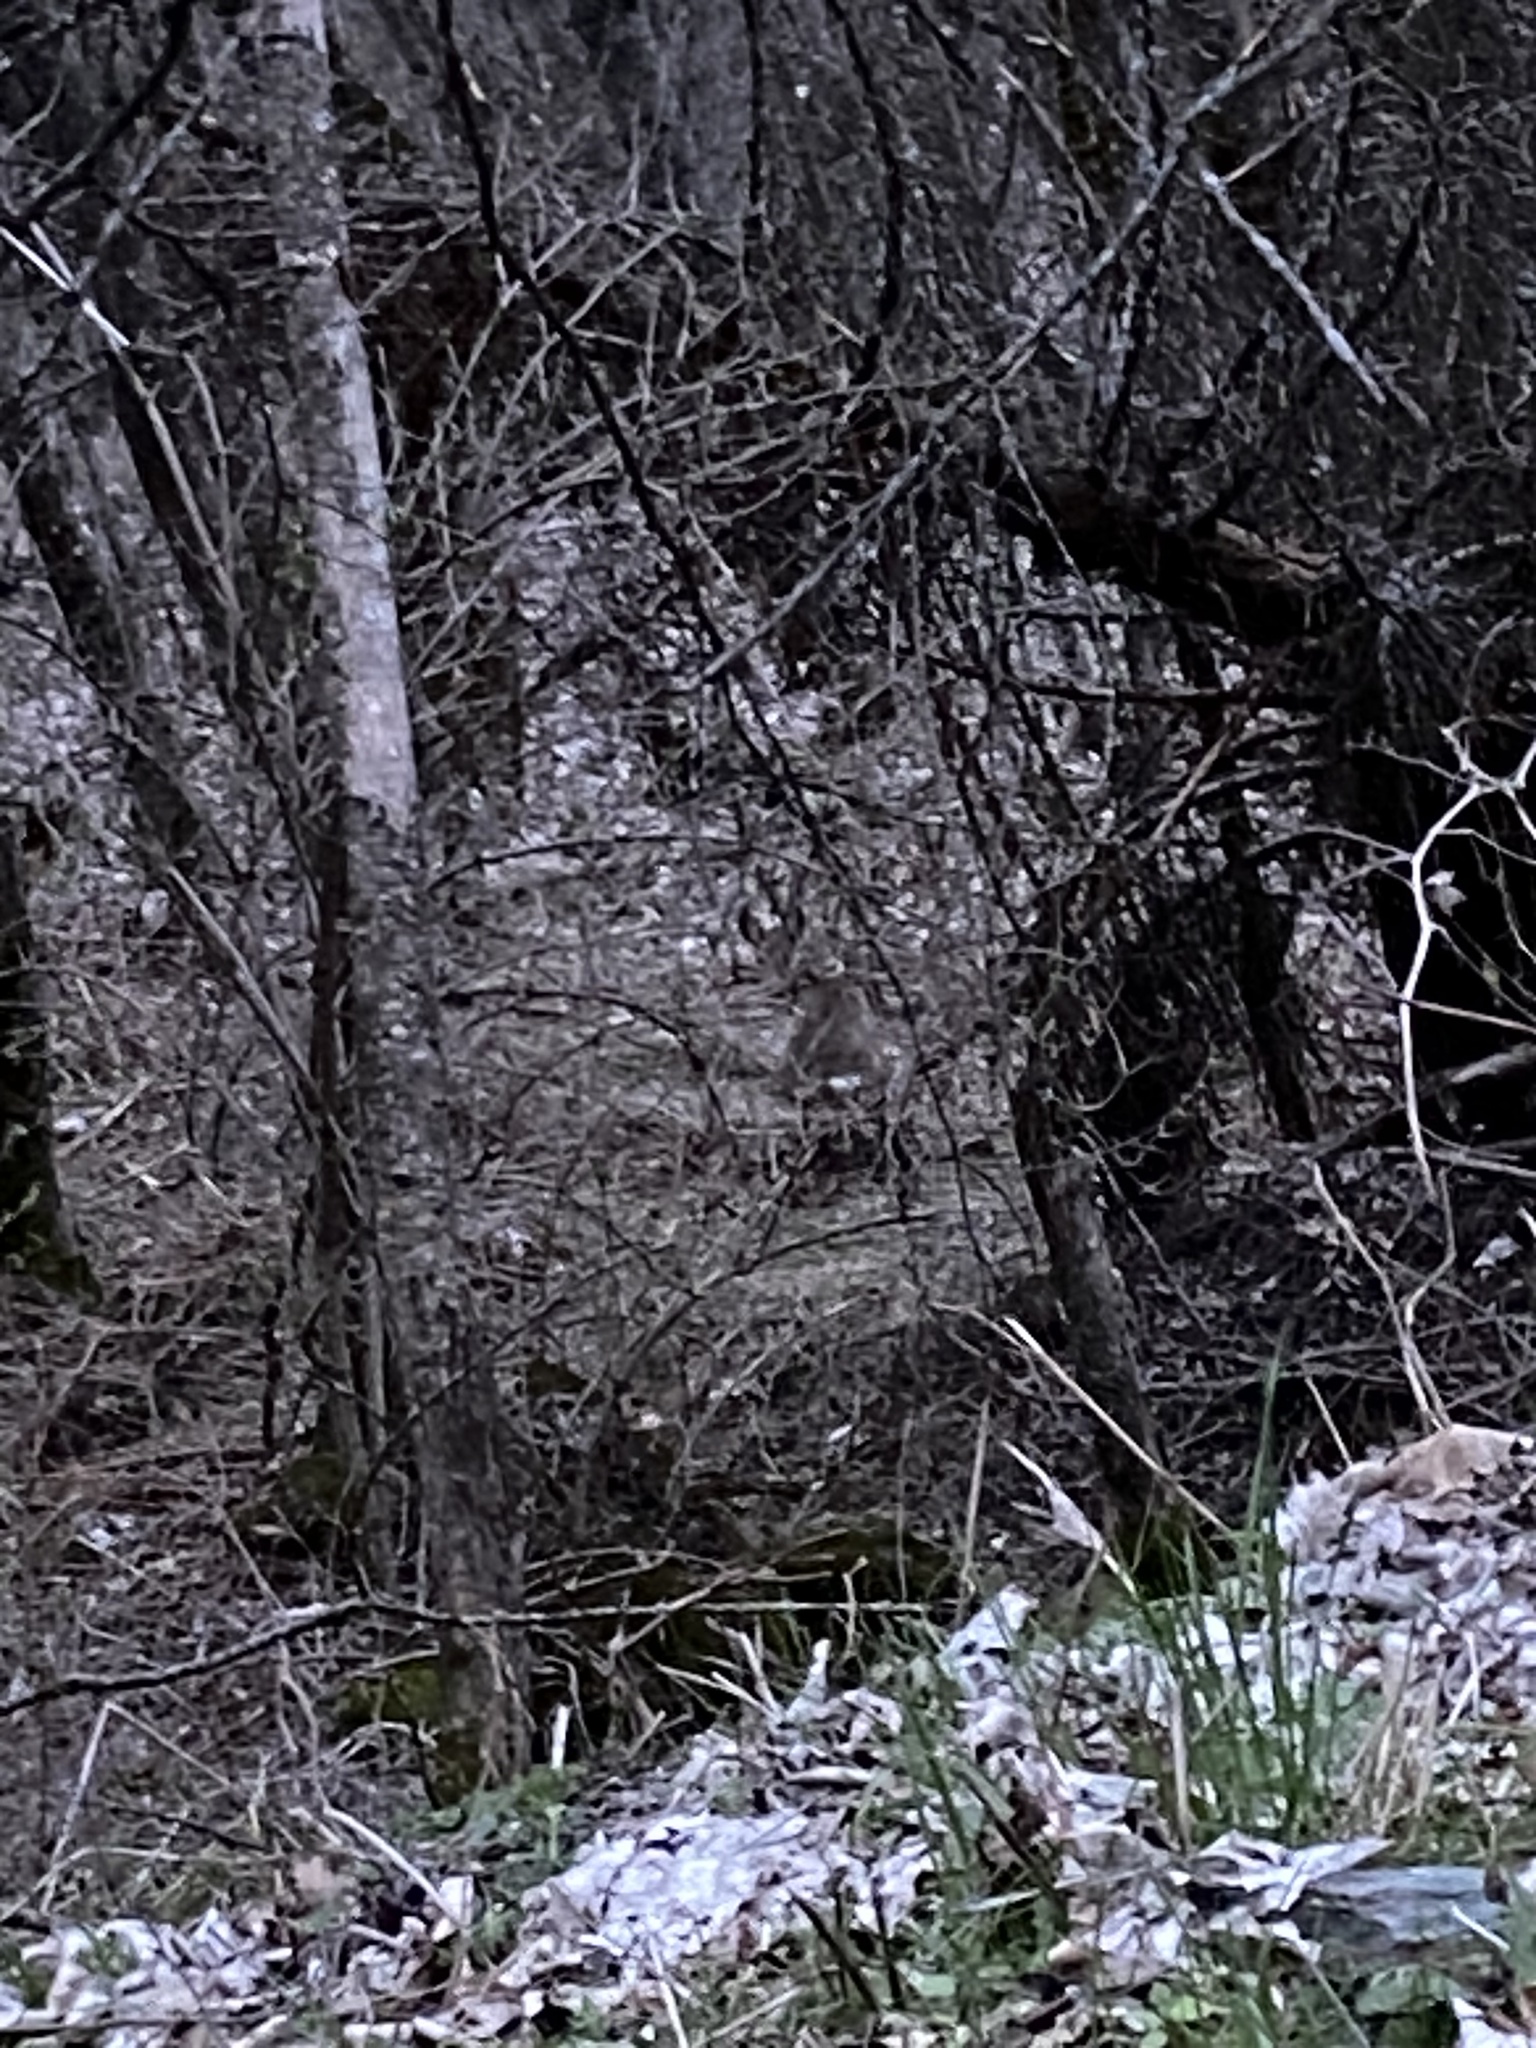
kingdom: Animalia
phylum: Chordata
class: Mammalia
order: Artiodactyla
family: Cervidae
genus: Capreolus
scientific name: Capreolus capreolus
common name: Western roe deer
